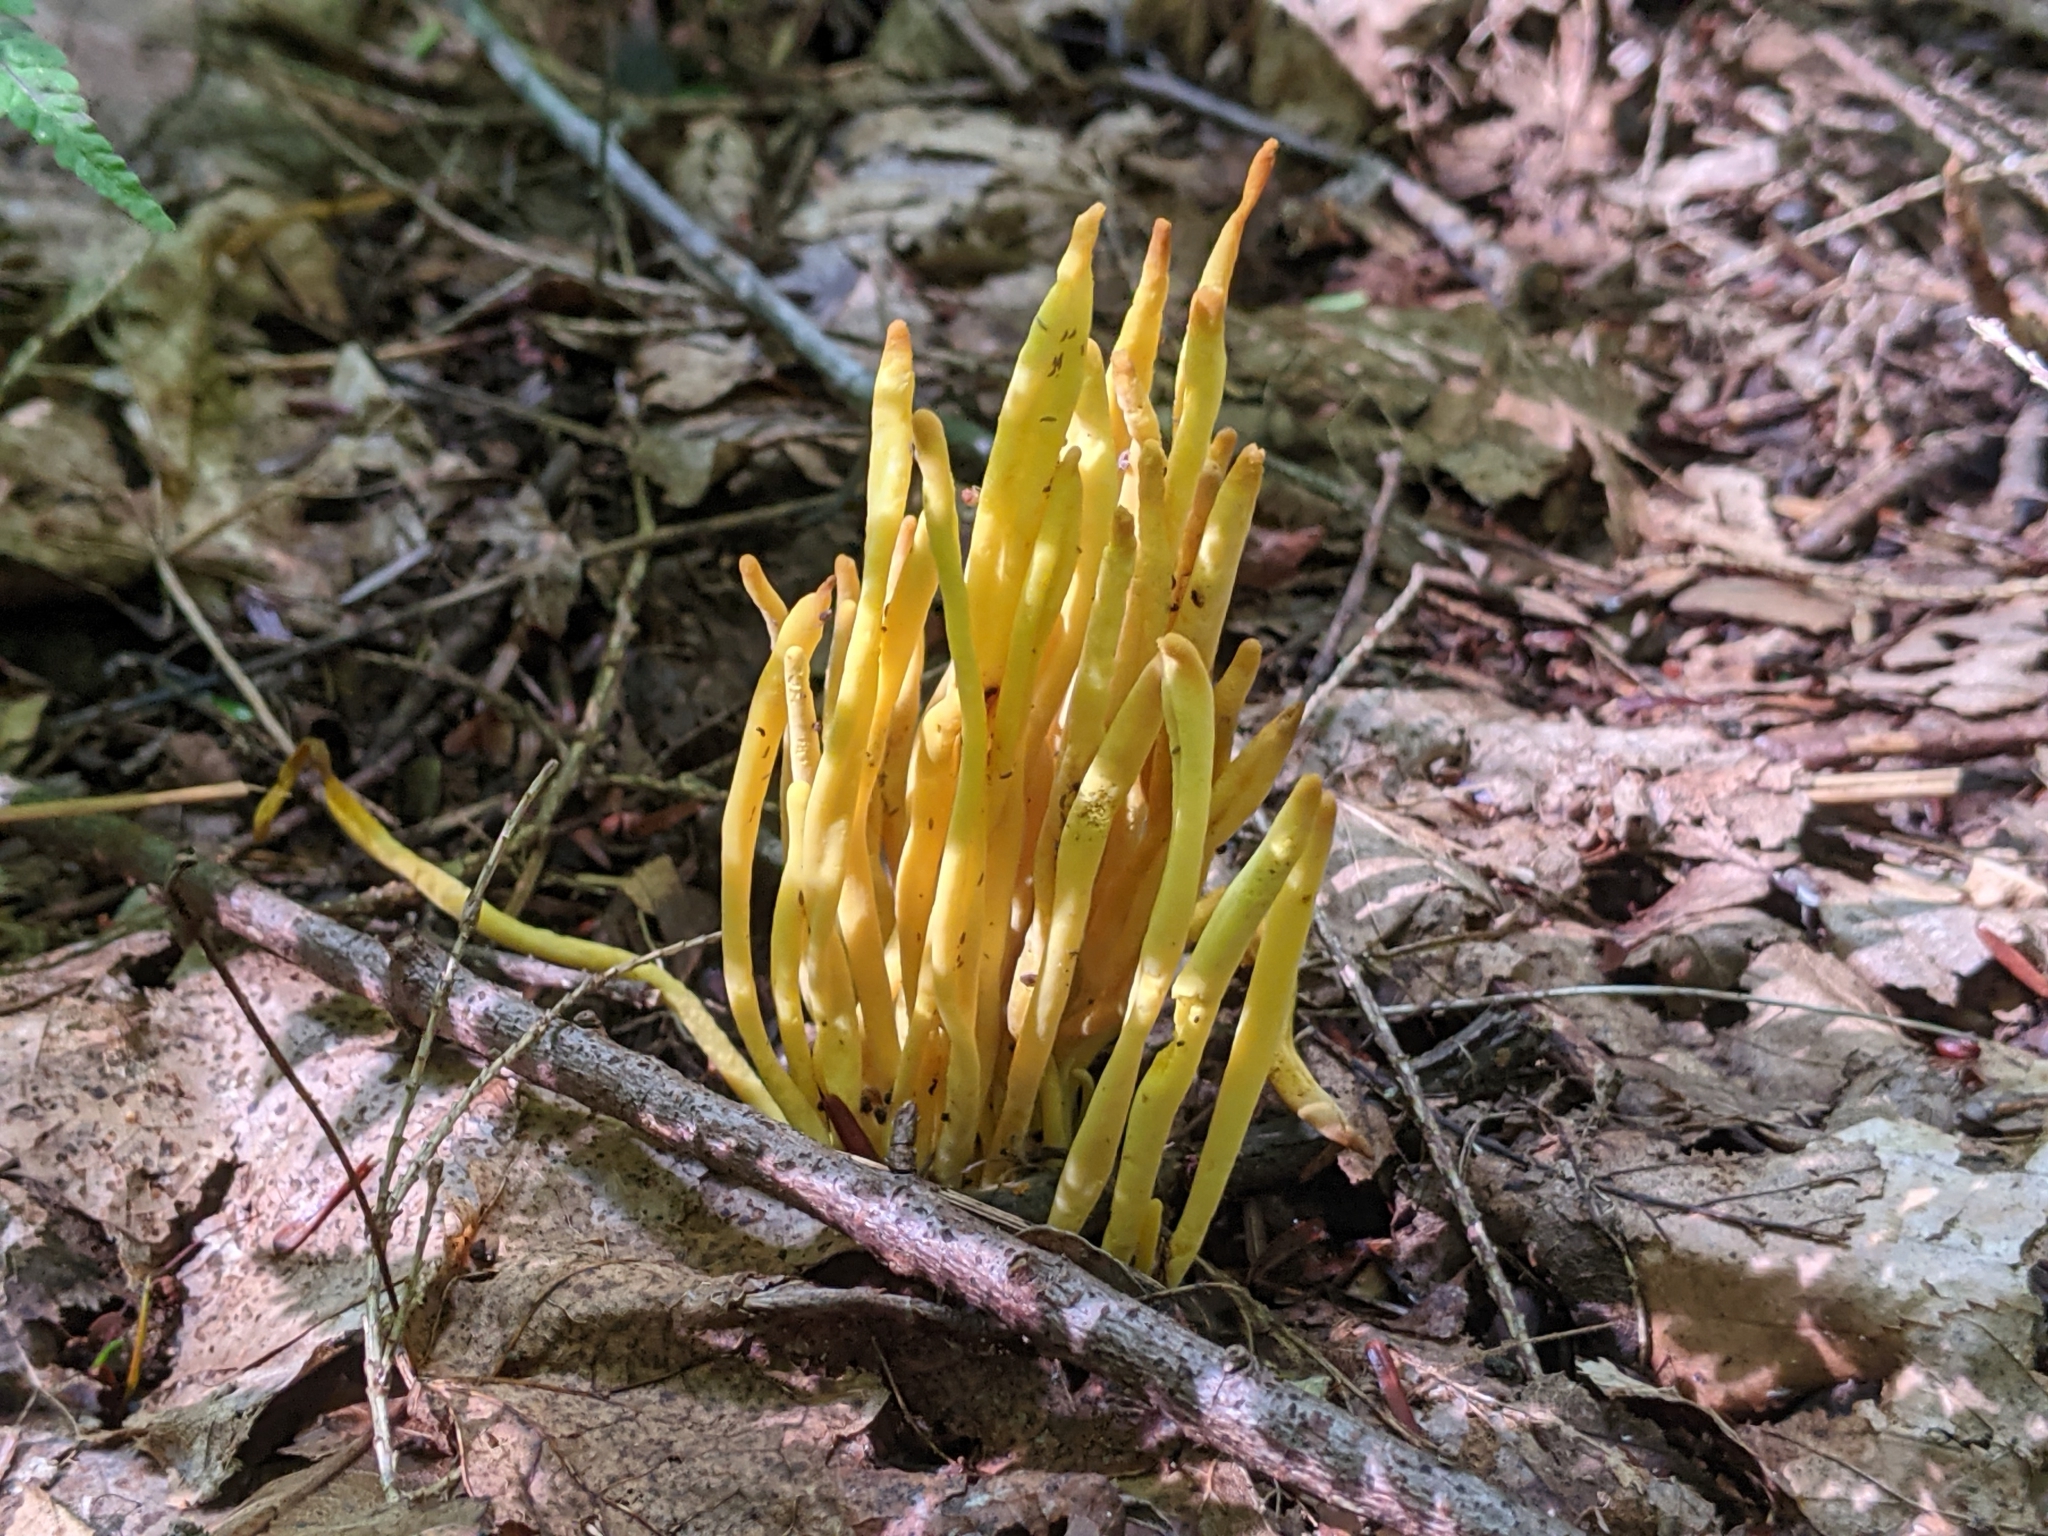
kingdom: Fungi
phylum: Basidiomycota
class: Agaricomycetes
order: Agaricales
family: Clavariaceae
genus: Clavulinopsis
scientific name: Clavulinopsis fusiformis
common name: Golden spindles
